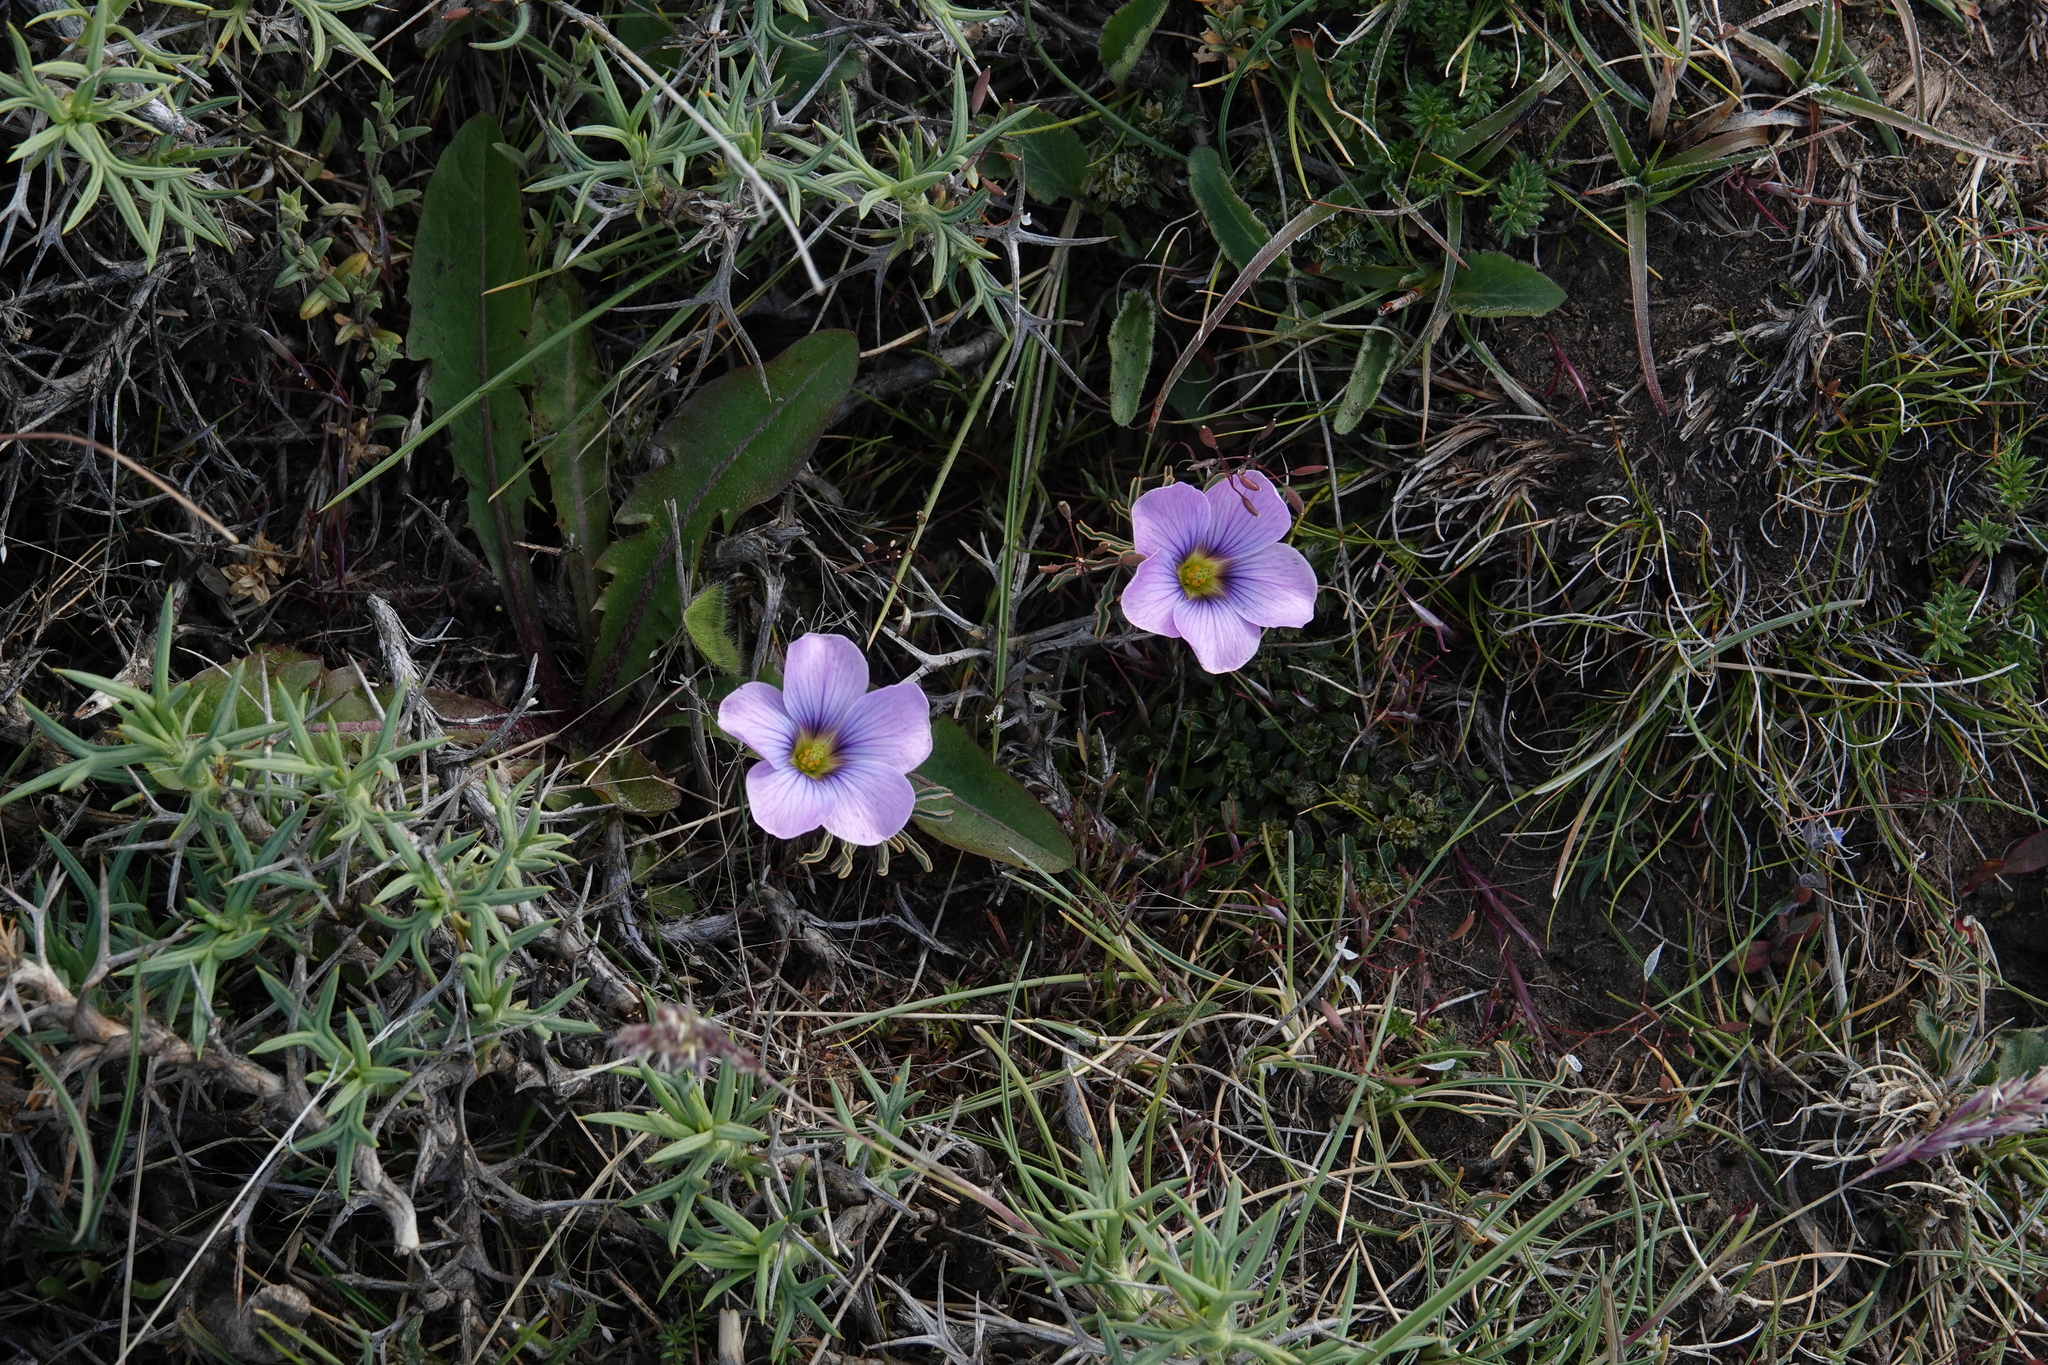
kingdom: Plantae
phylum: Tracheophyta
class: Magnoliopsida
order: Oxalidales
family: Oxalidaceae
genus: Oxalis
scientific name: Oxalis laciniata
